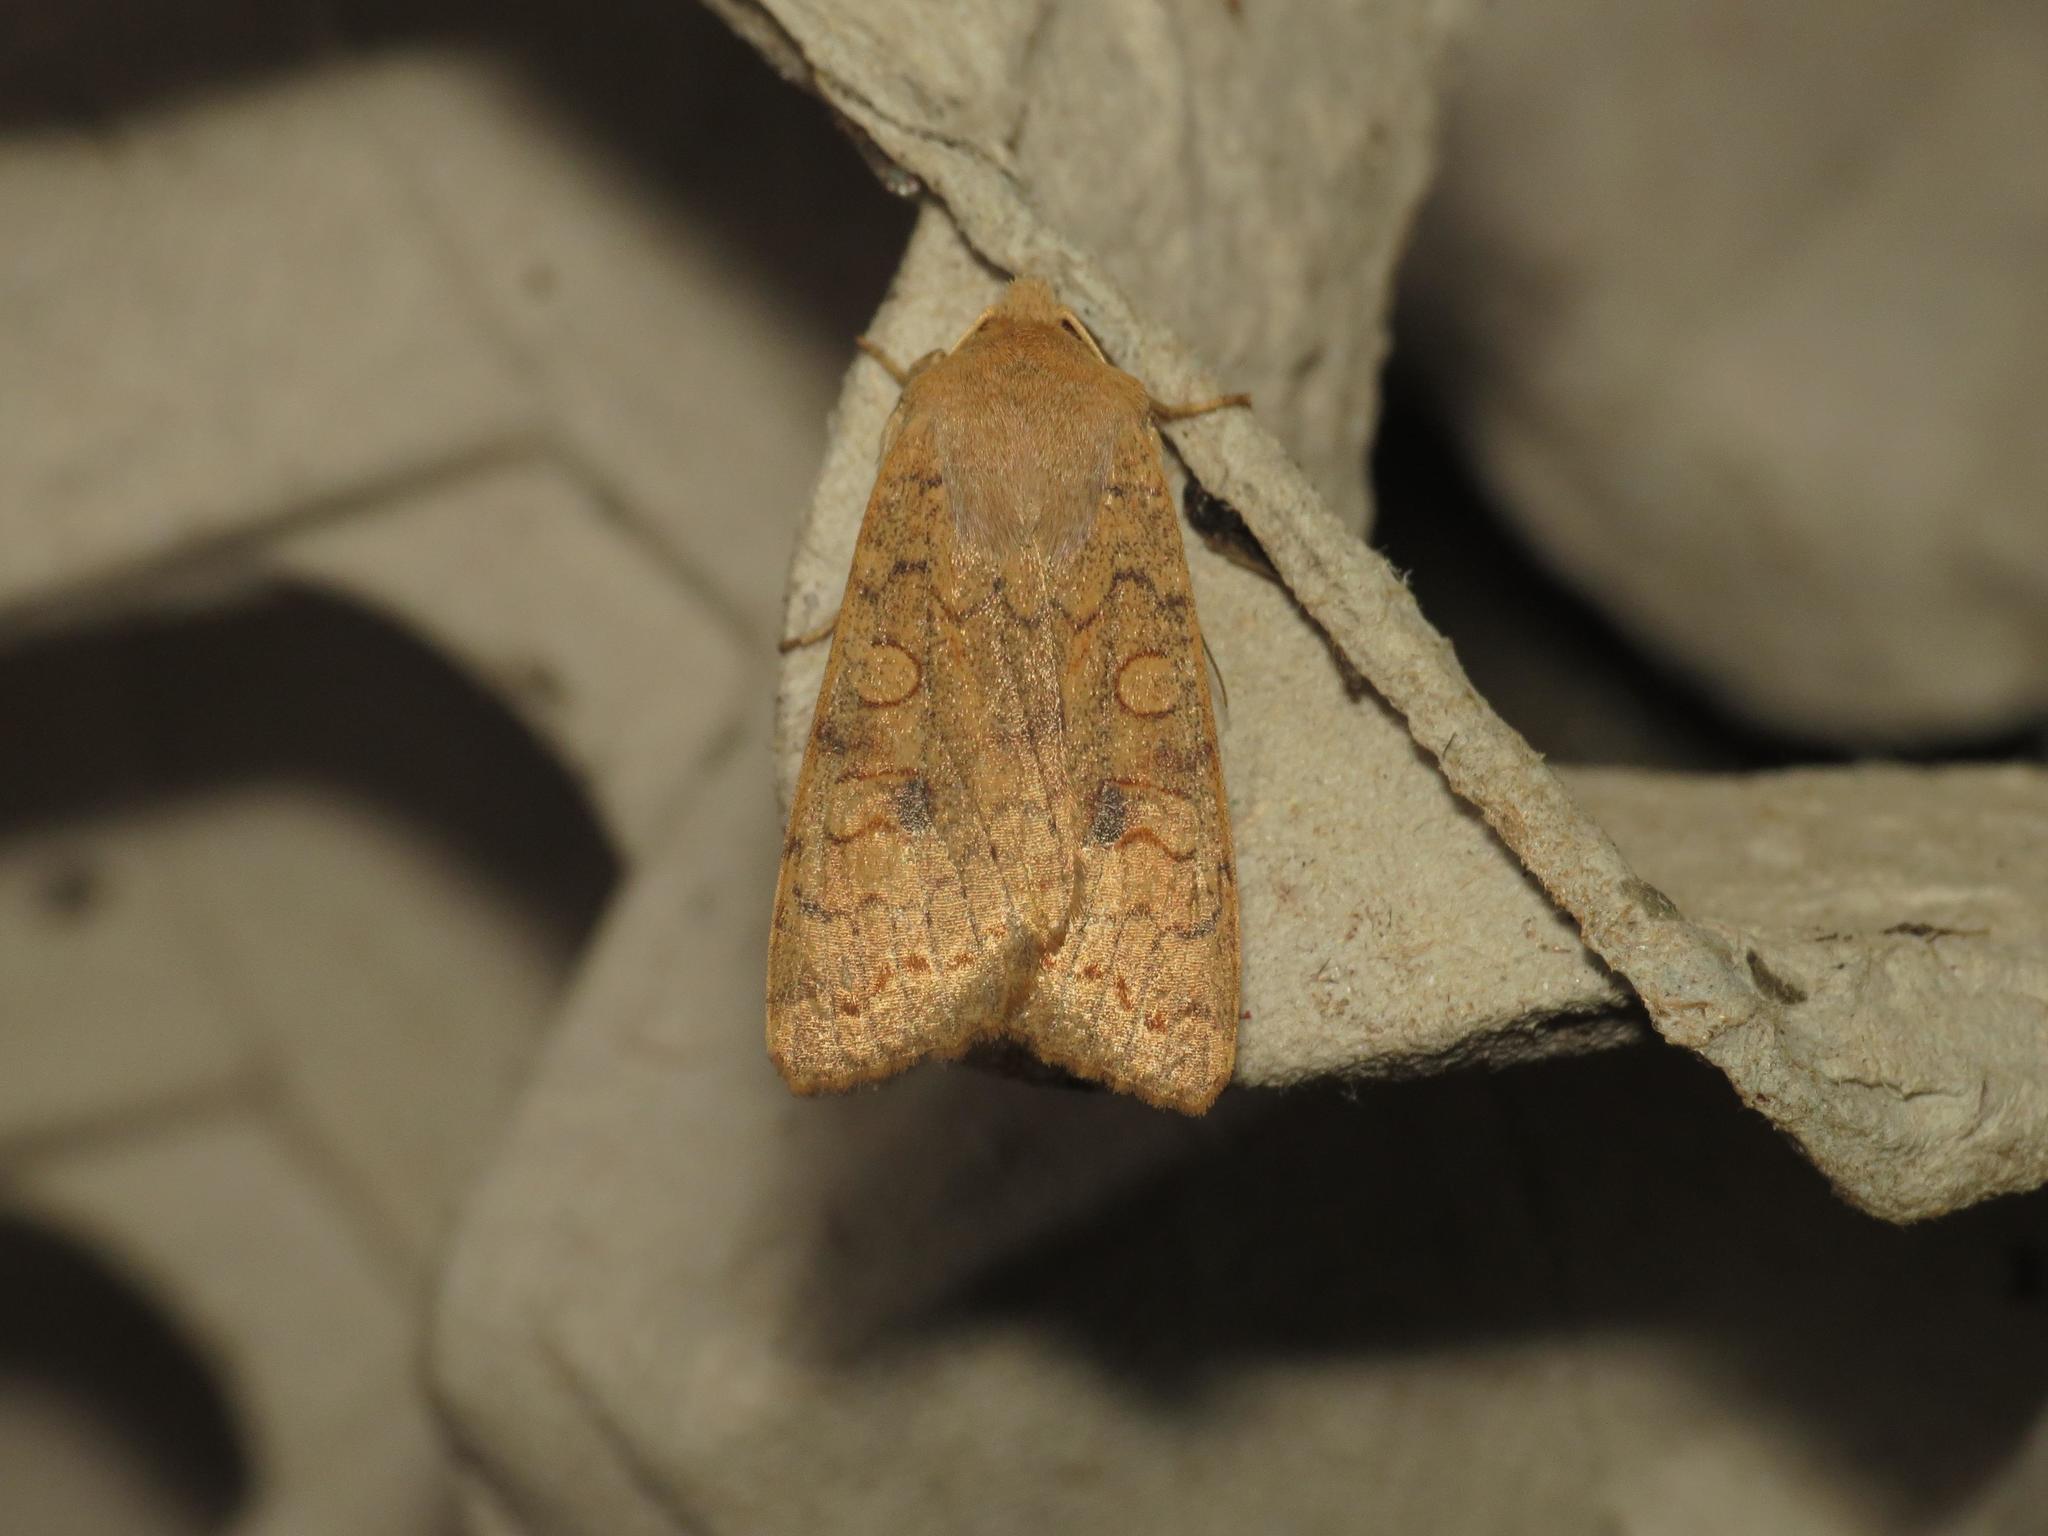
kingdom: Animalia
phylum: Arthropoda
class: Insecta
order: Lepidoptera
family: Noctuidae
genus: Sunira
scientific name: Sunira circellaris
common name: Brick
